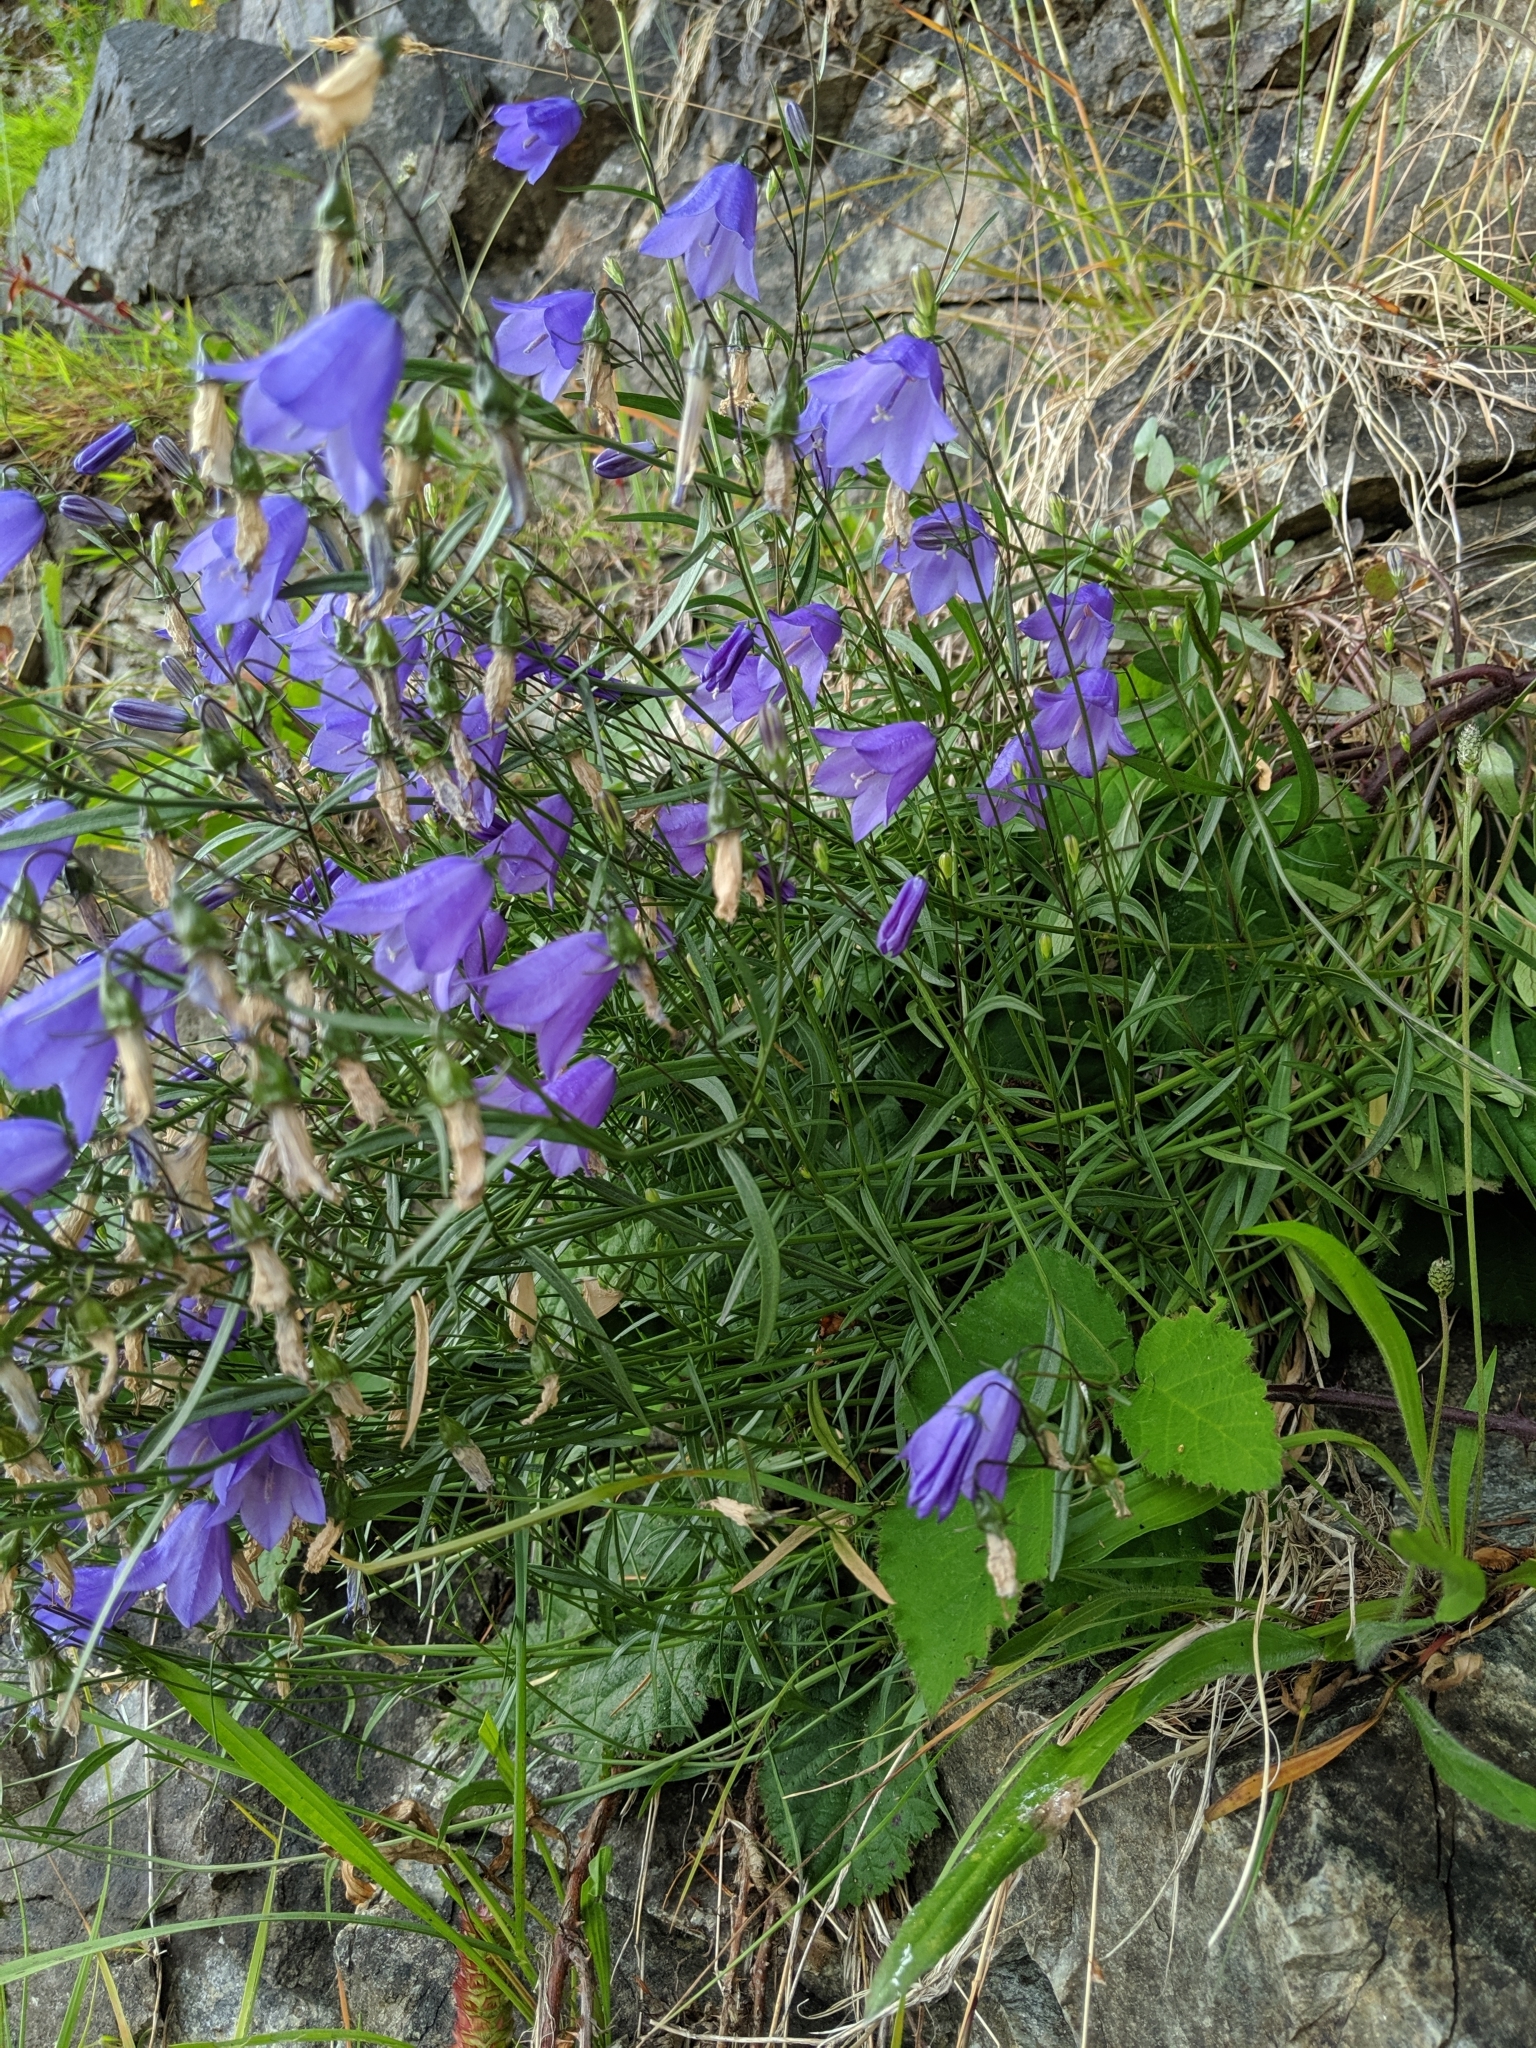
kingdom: Plantae
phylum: Tracheophyta
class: Magnoliopsida
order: Asterales
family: Campanulaceae
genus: Campanula
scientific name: Campanula alaskana
